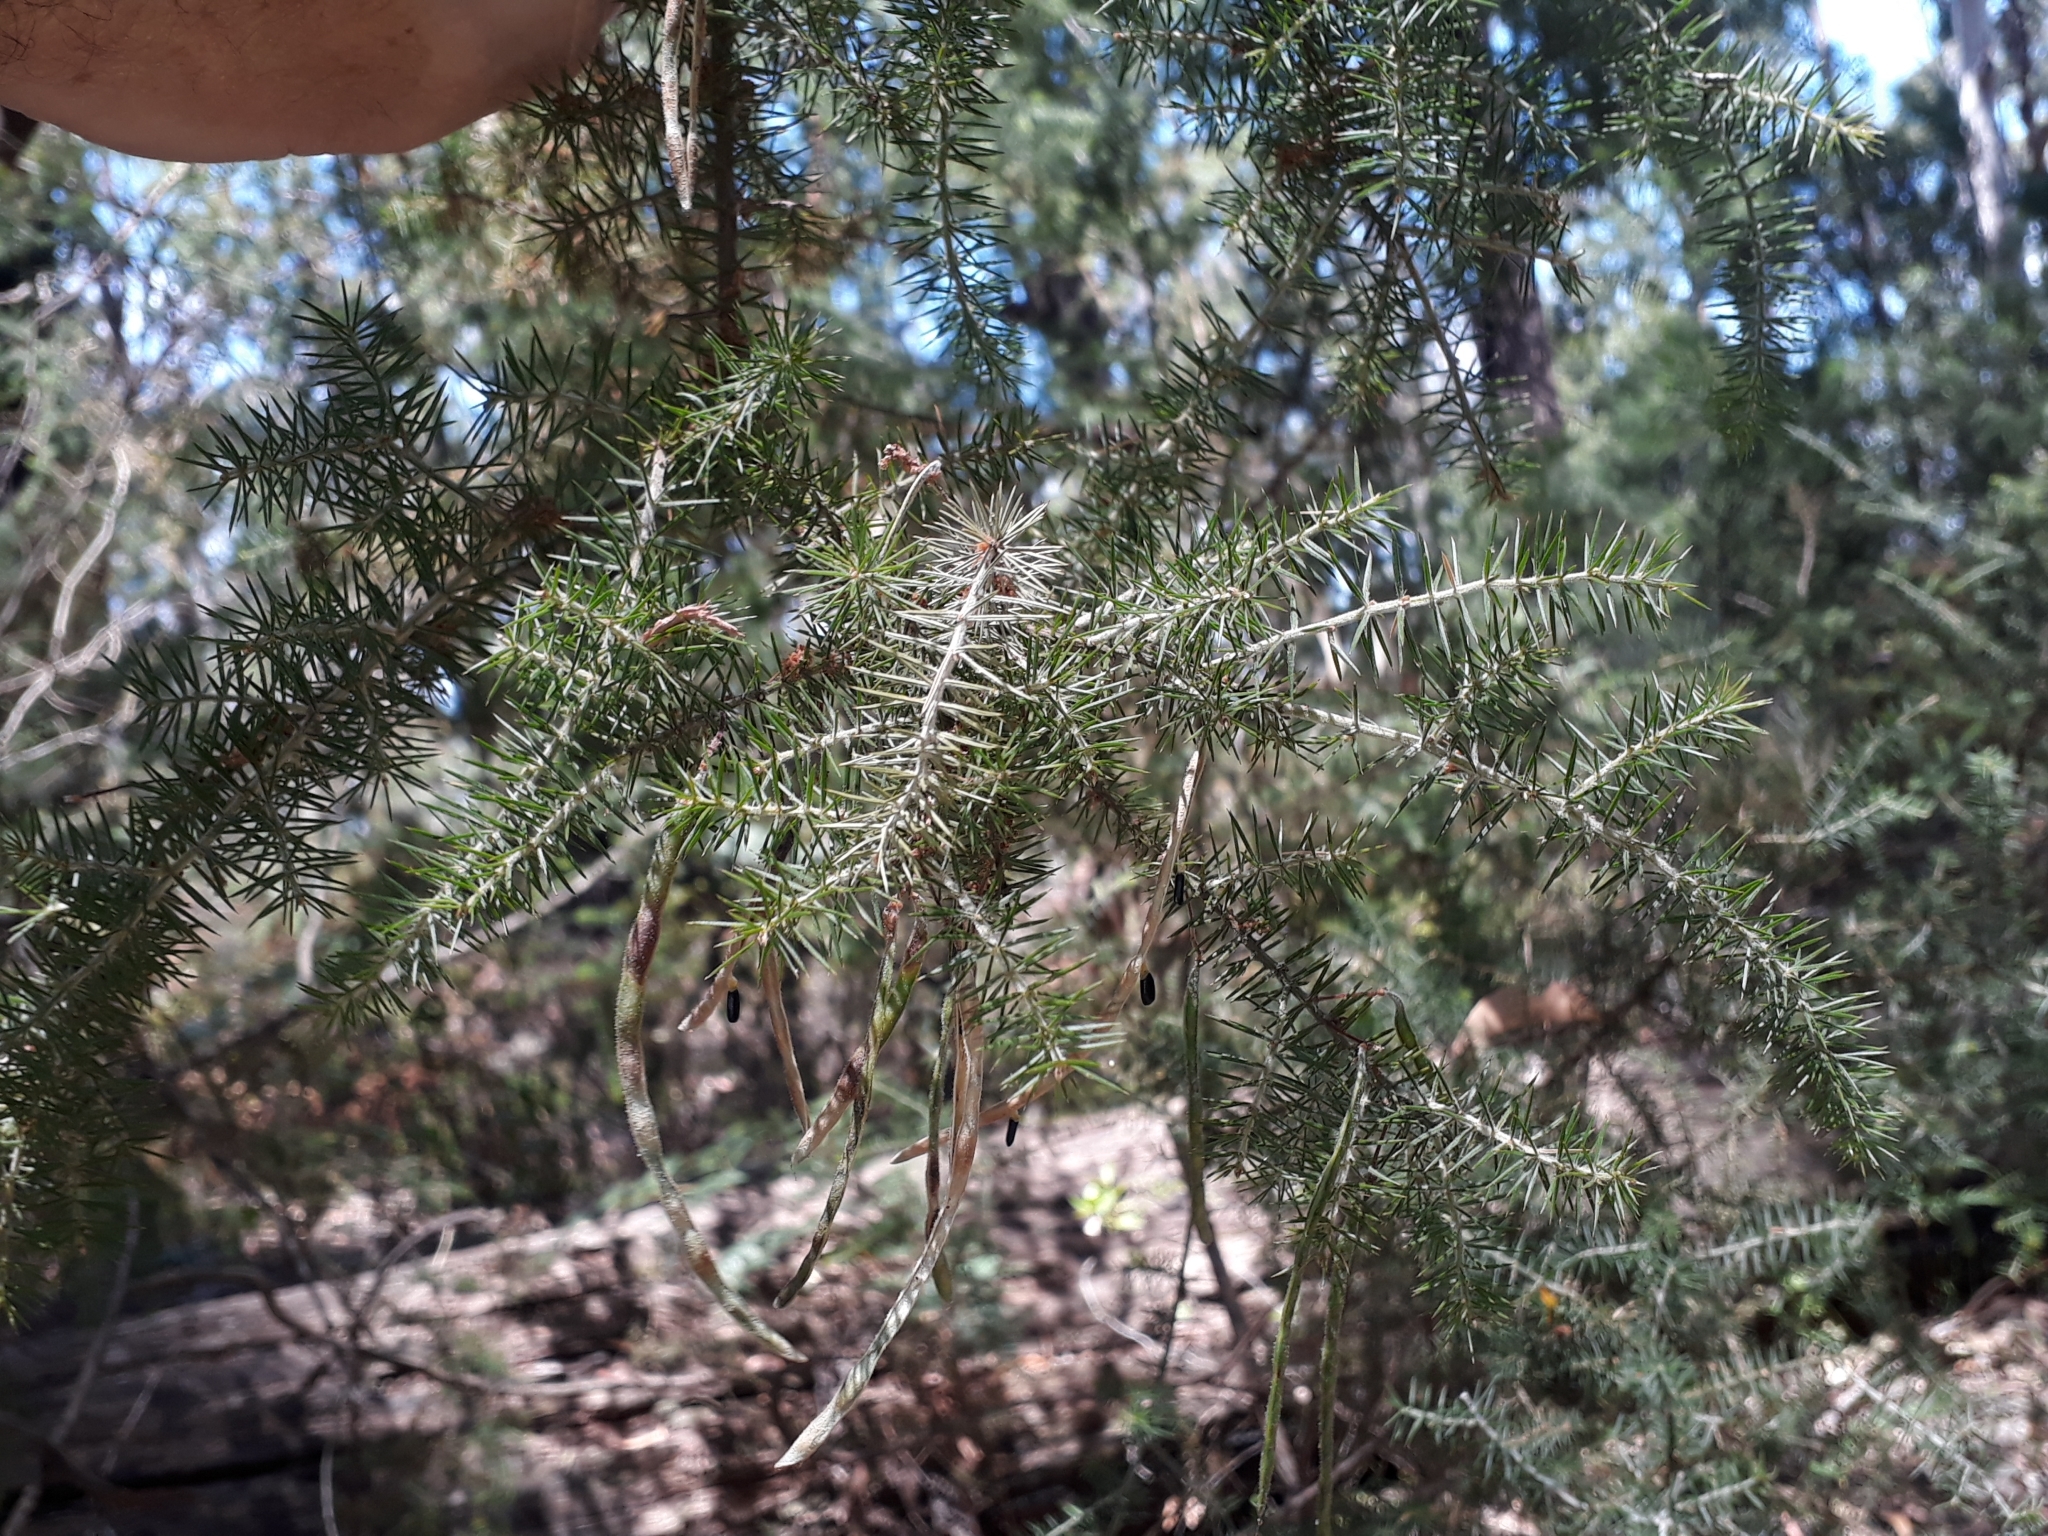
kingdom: Plantae
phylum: Tracheophyta
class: Magnoliopsida
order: Fabales
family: Fabaceae
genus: Acacia
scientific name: Acacia verticillata
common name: Prickly moses
